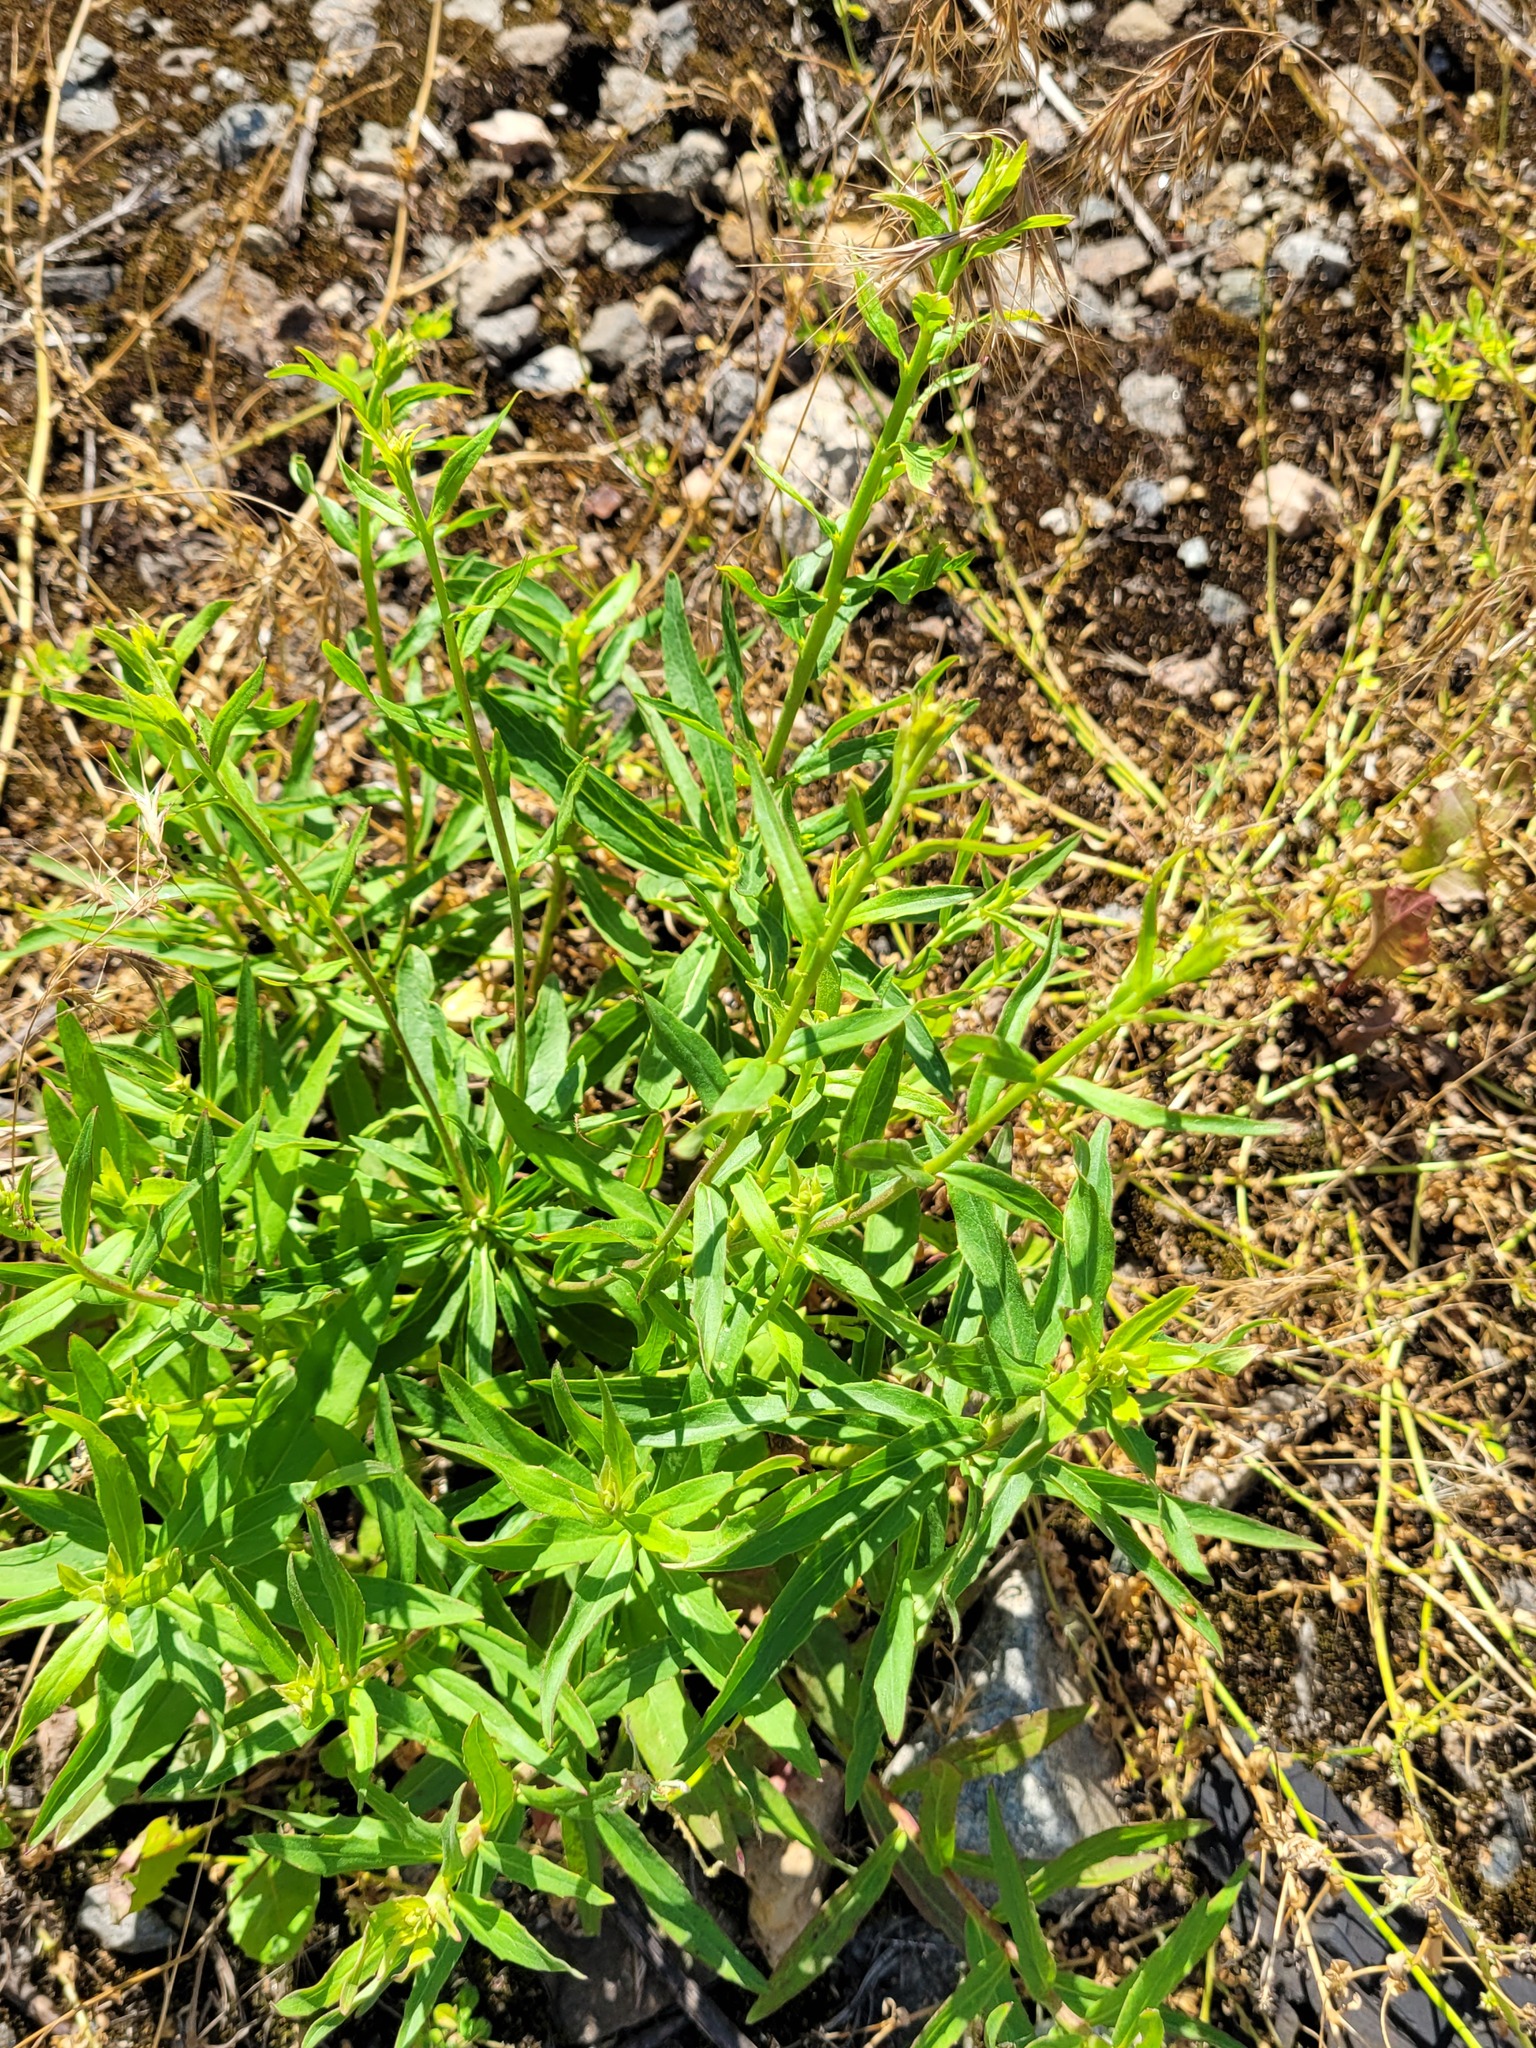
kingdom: Plantae
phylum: Tracheophyta
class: Magnoliopsida
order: Asterales
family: Asteraceae
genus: Hieracium
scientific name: Hieracium umbellatum
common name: Northern hawkweed
